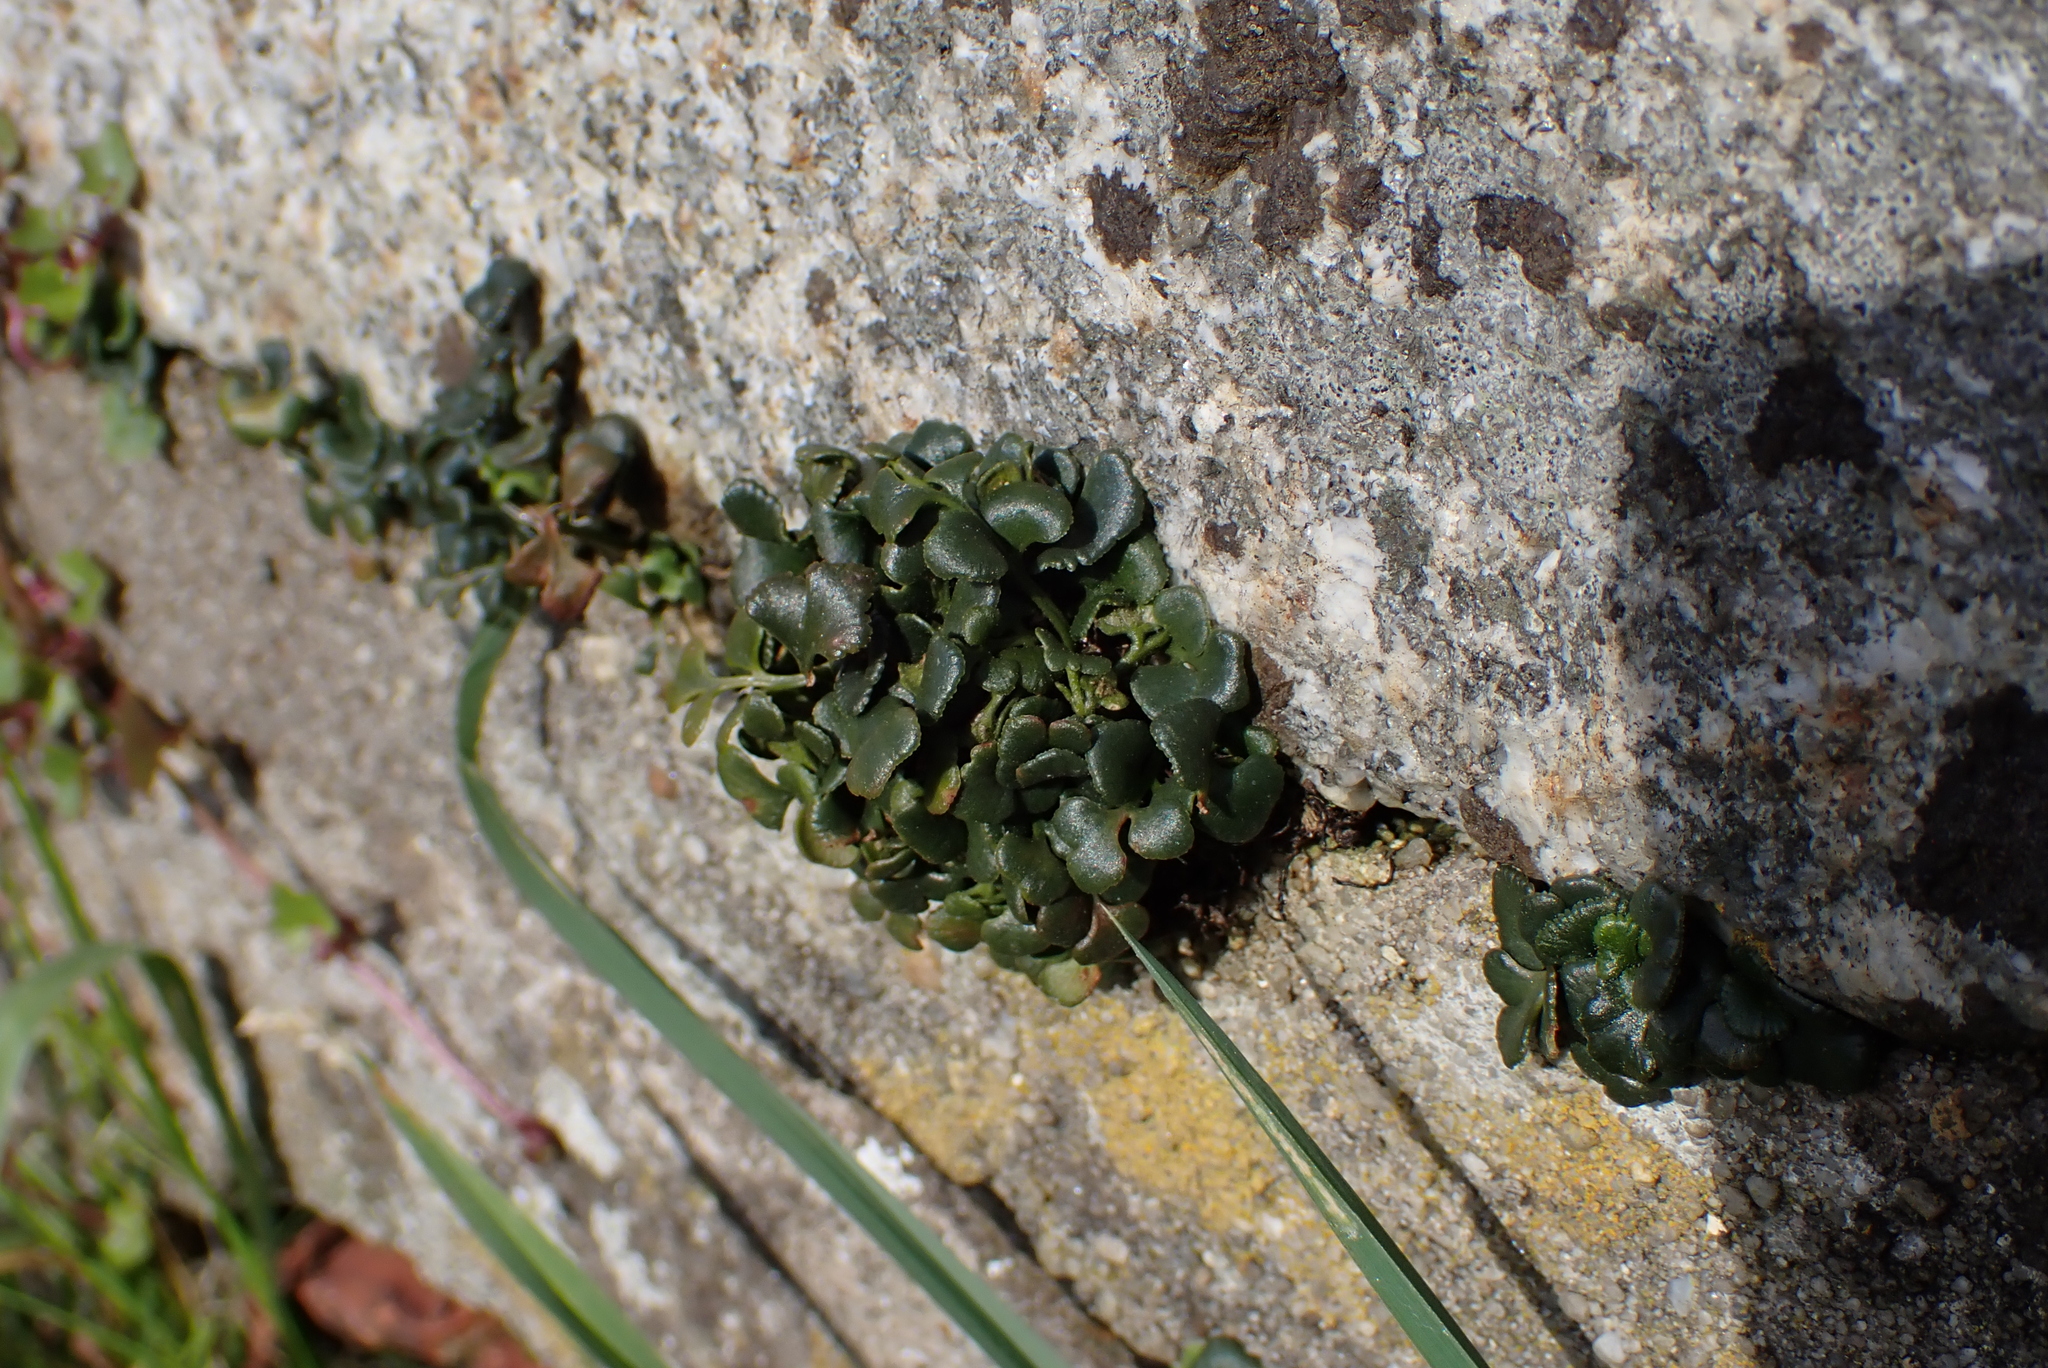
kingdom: Plantae
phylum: Tracheophyta
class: Polypodiopsida
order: Polypodiales
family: Aspleniaceae
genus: Asplenium
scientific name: Asplenium ruta-muraria
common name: Wall-rue
